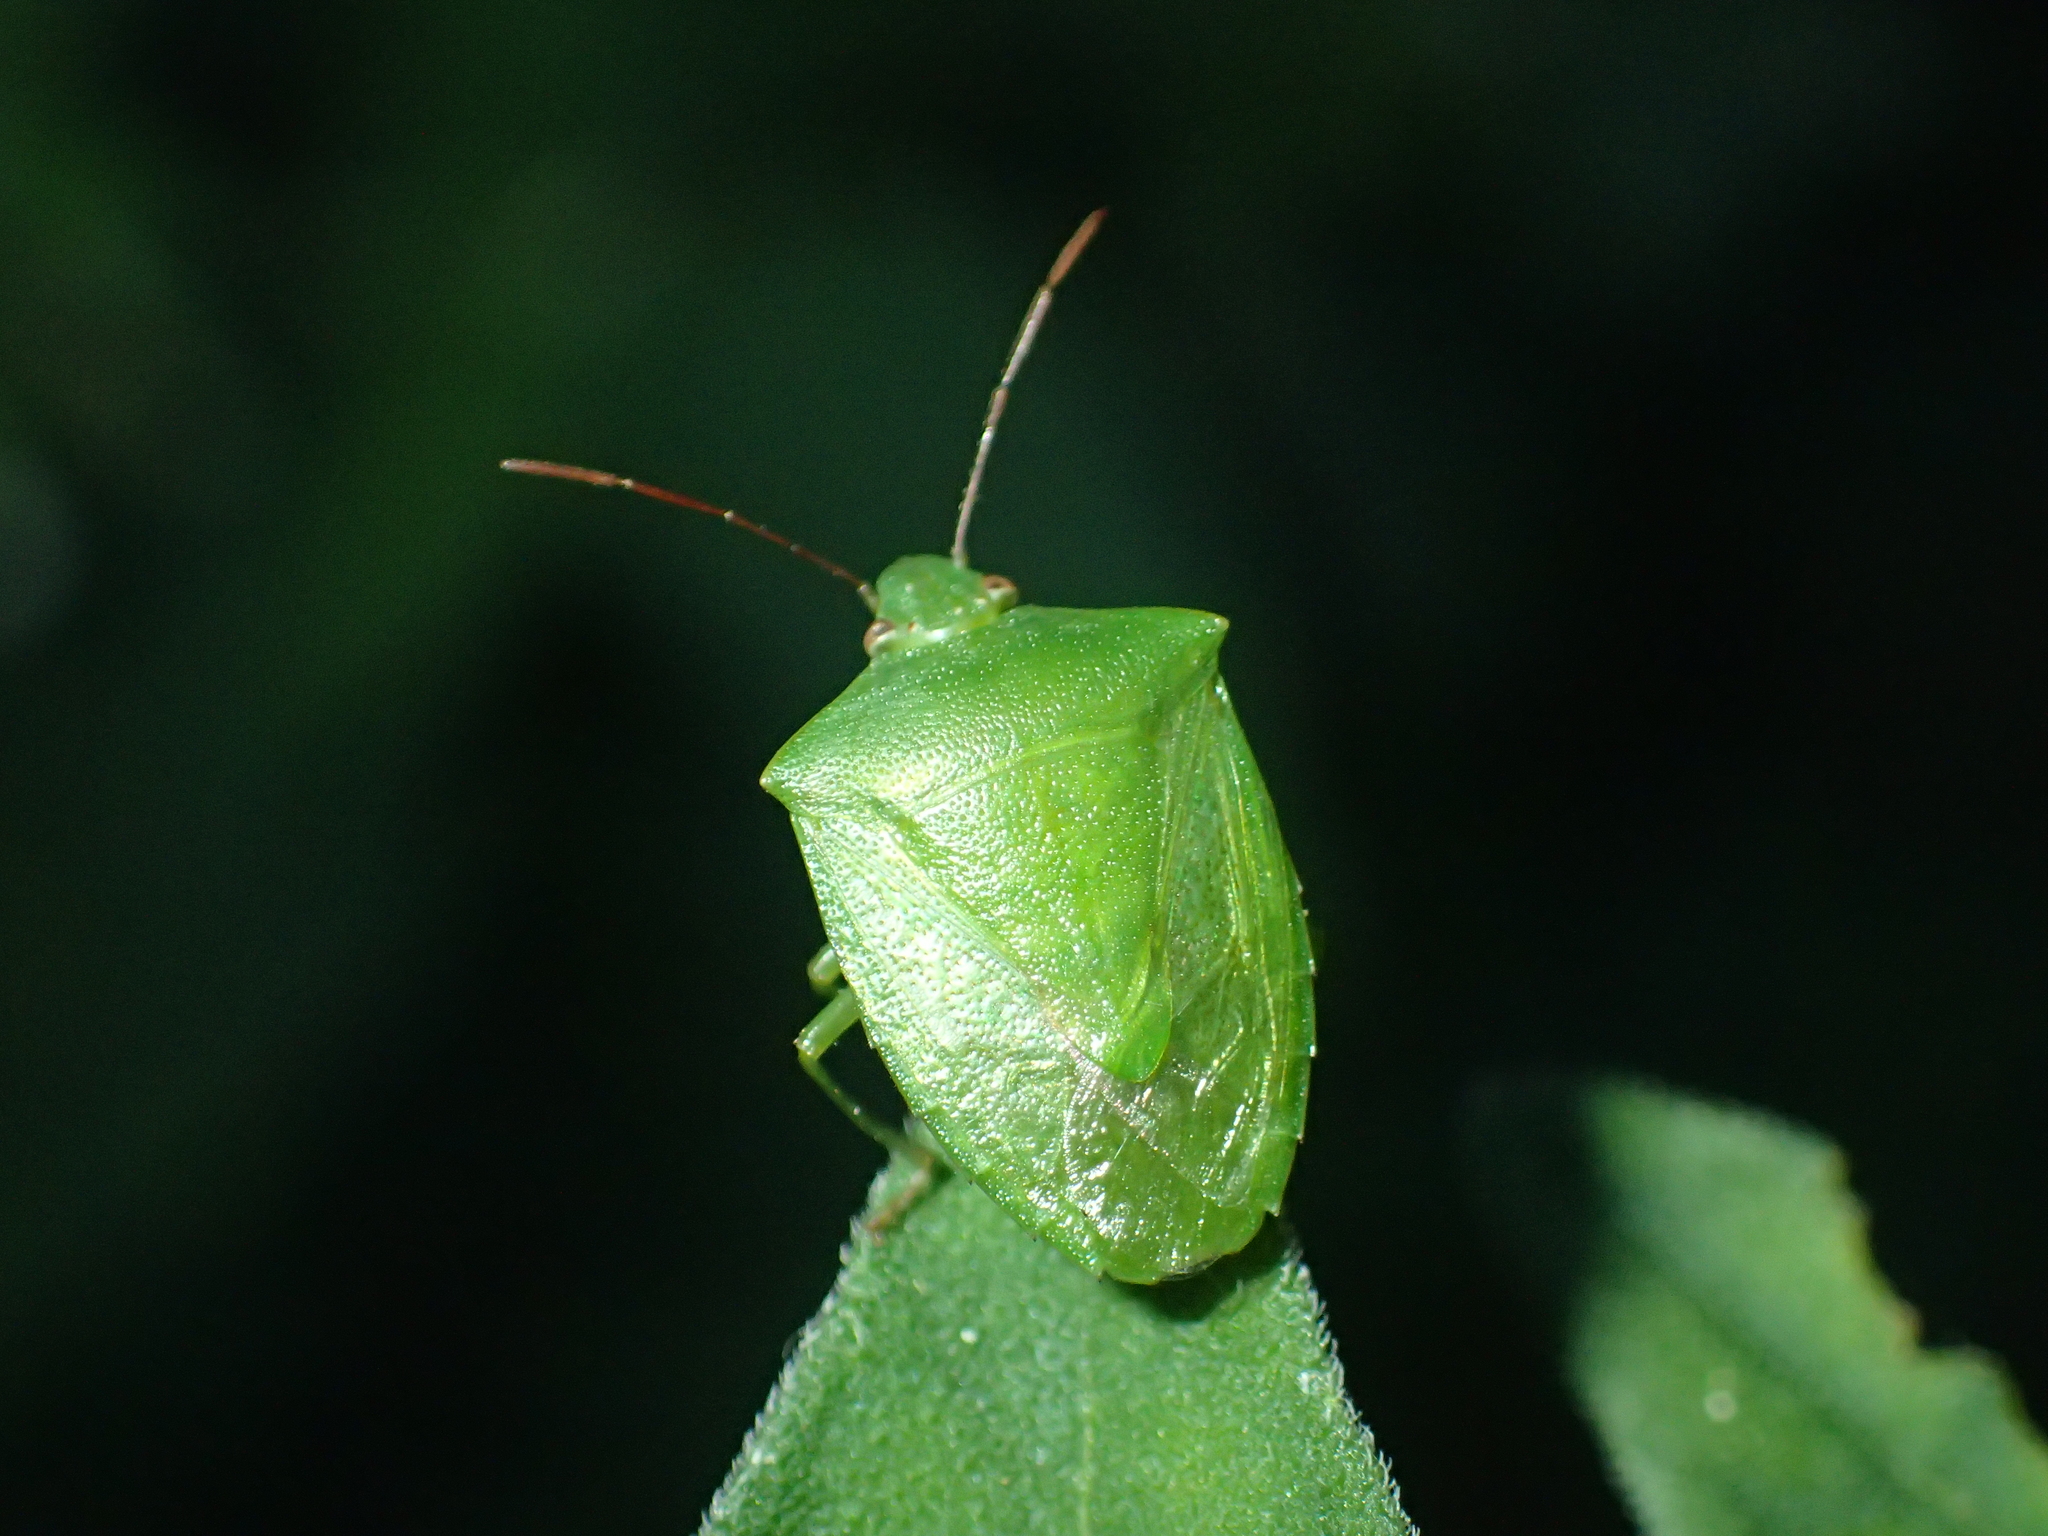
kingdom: Animalia
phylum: Arthropoda
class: Insecta
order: Hemiptera
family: Pentatomidae
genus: Cuspicona
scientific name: Cuspicona simplex
